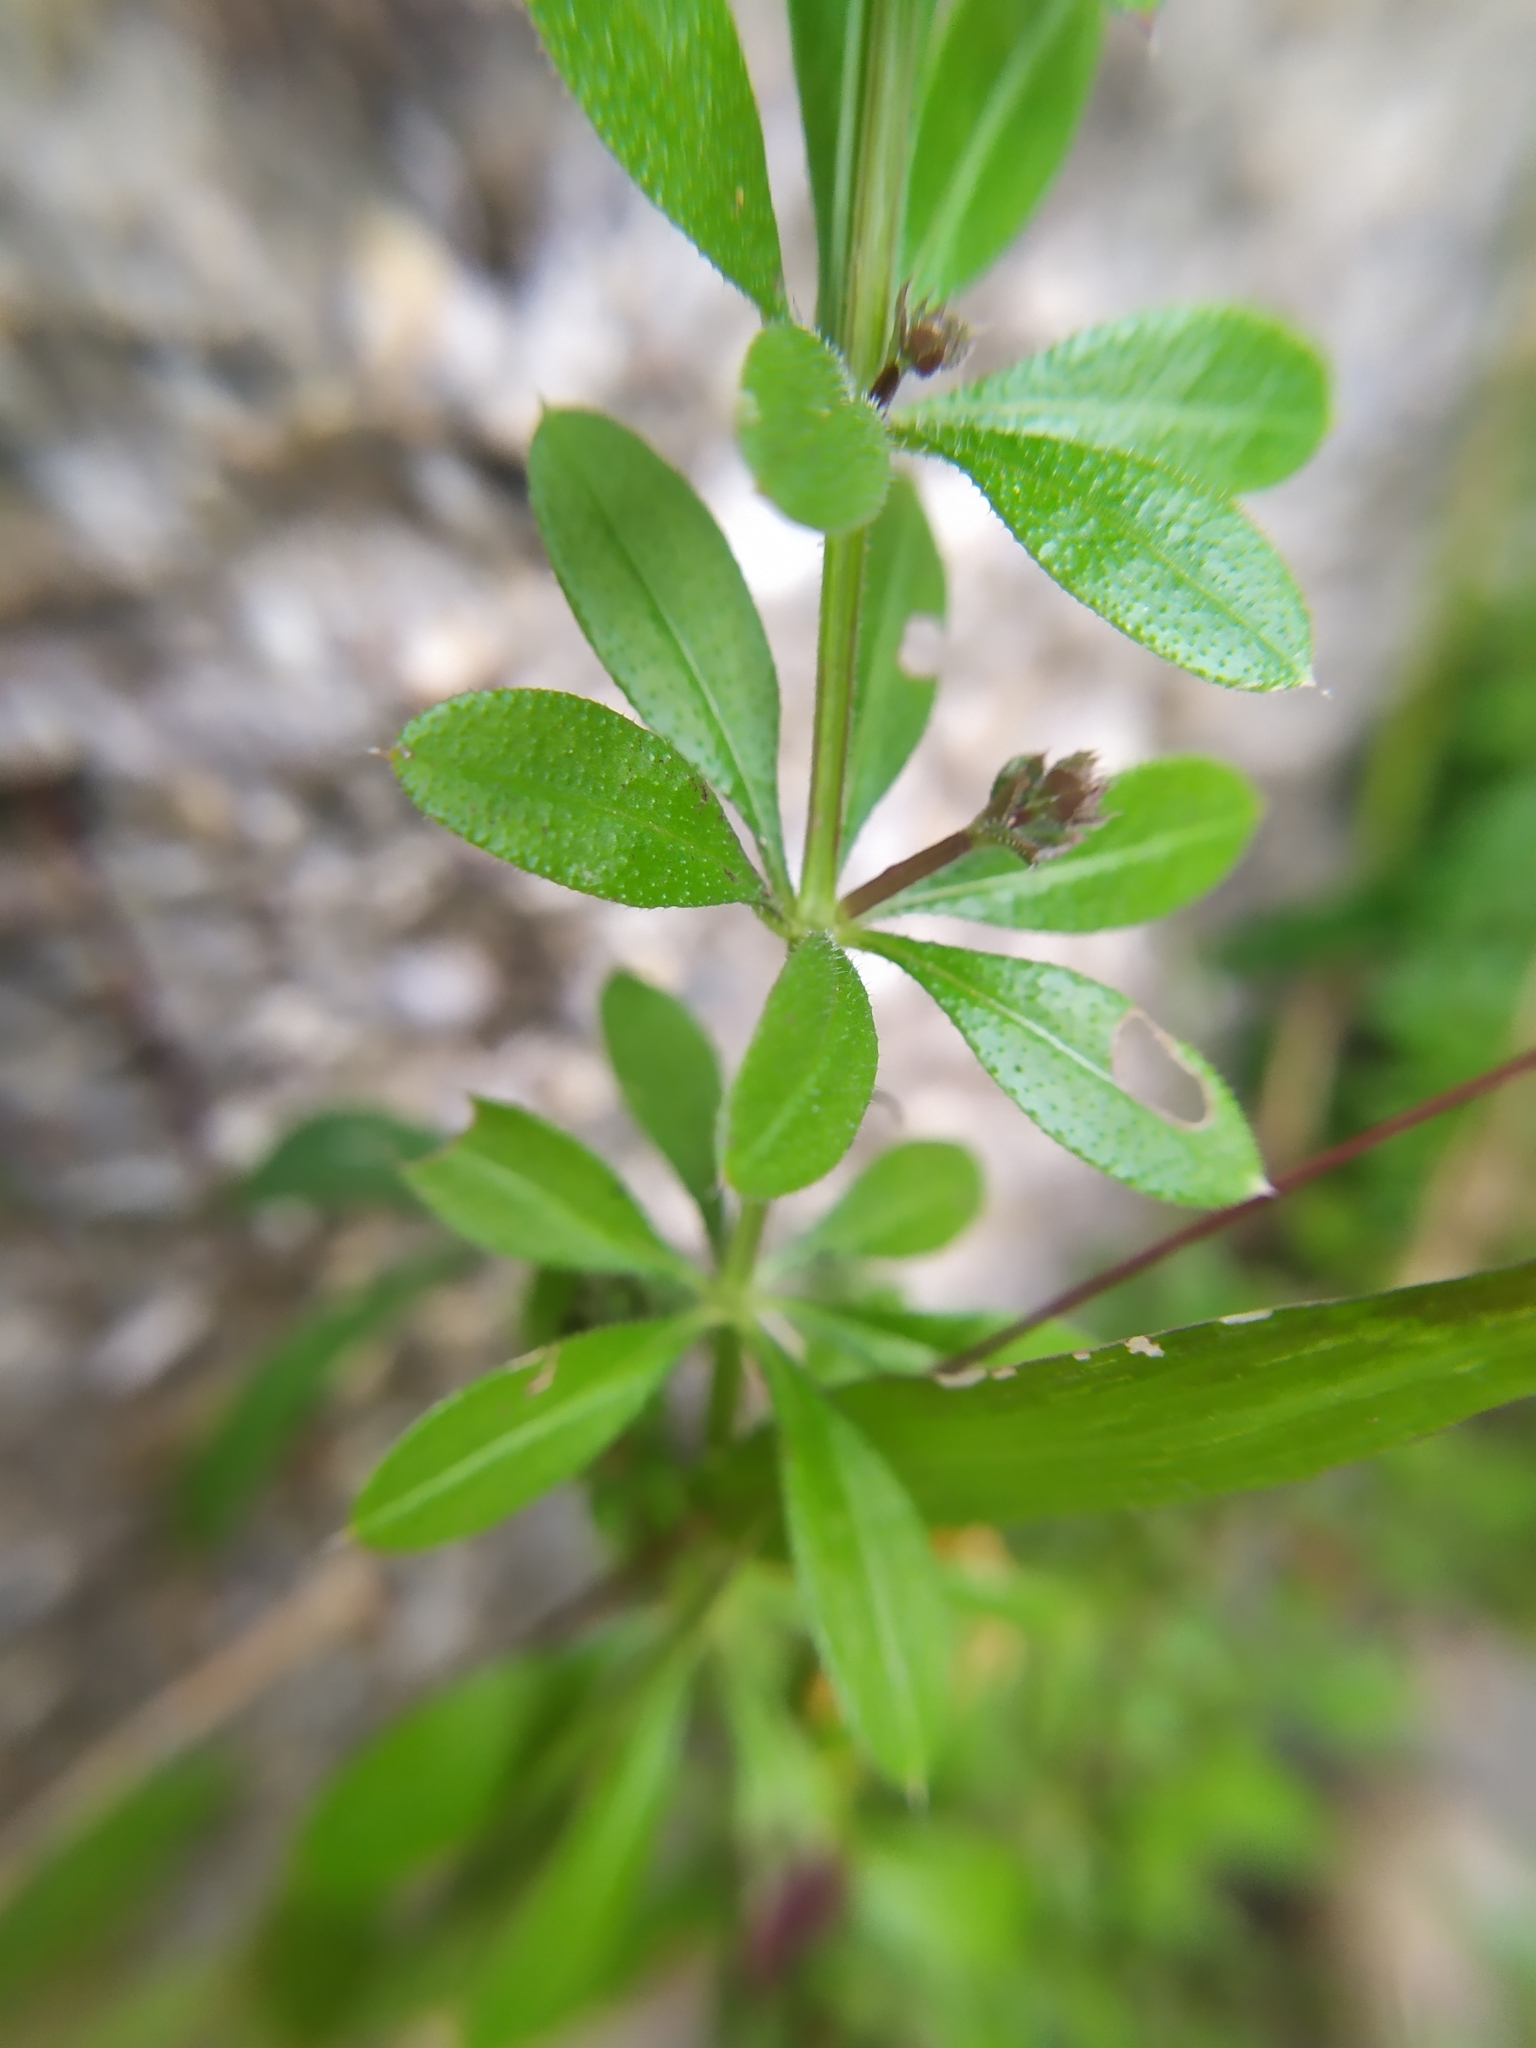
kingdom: Plantae
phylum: Tracheophyta
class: Magnoliopsida
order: Gentianales
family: Rubiaceae
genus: Galium
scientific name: Galium aparine
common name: Cleavers
